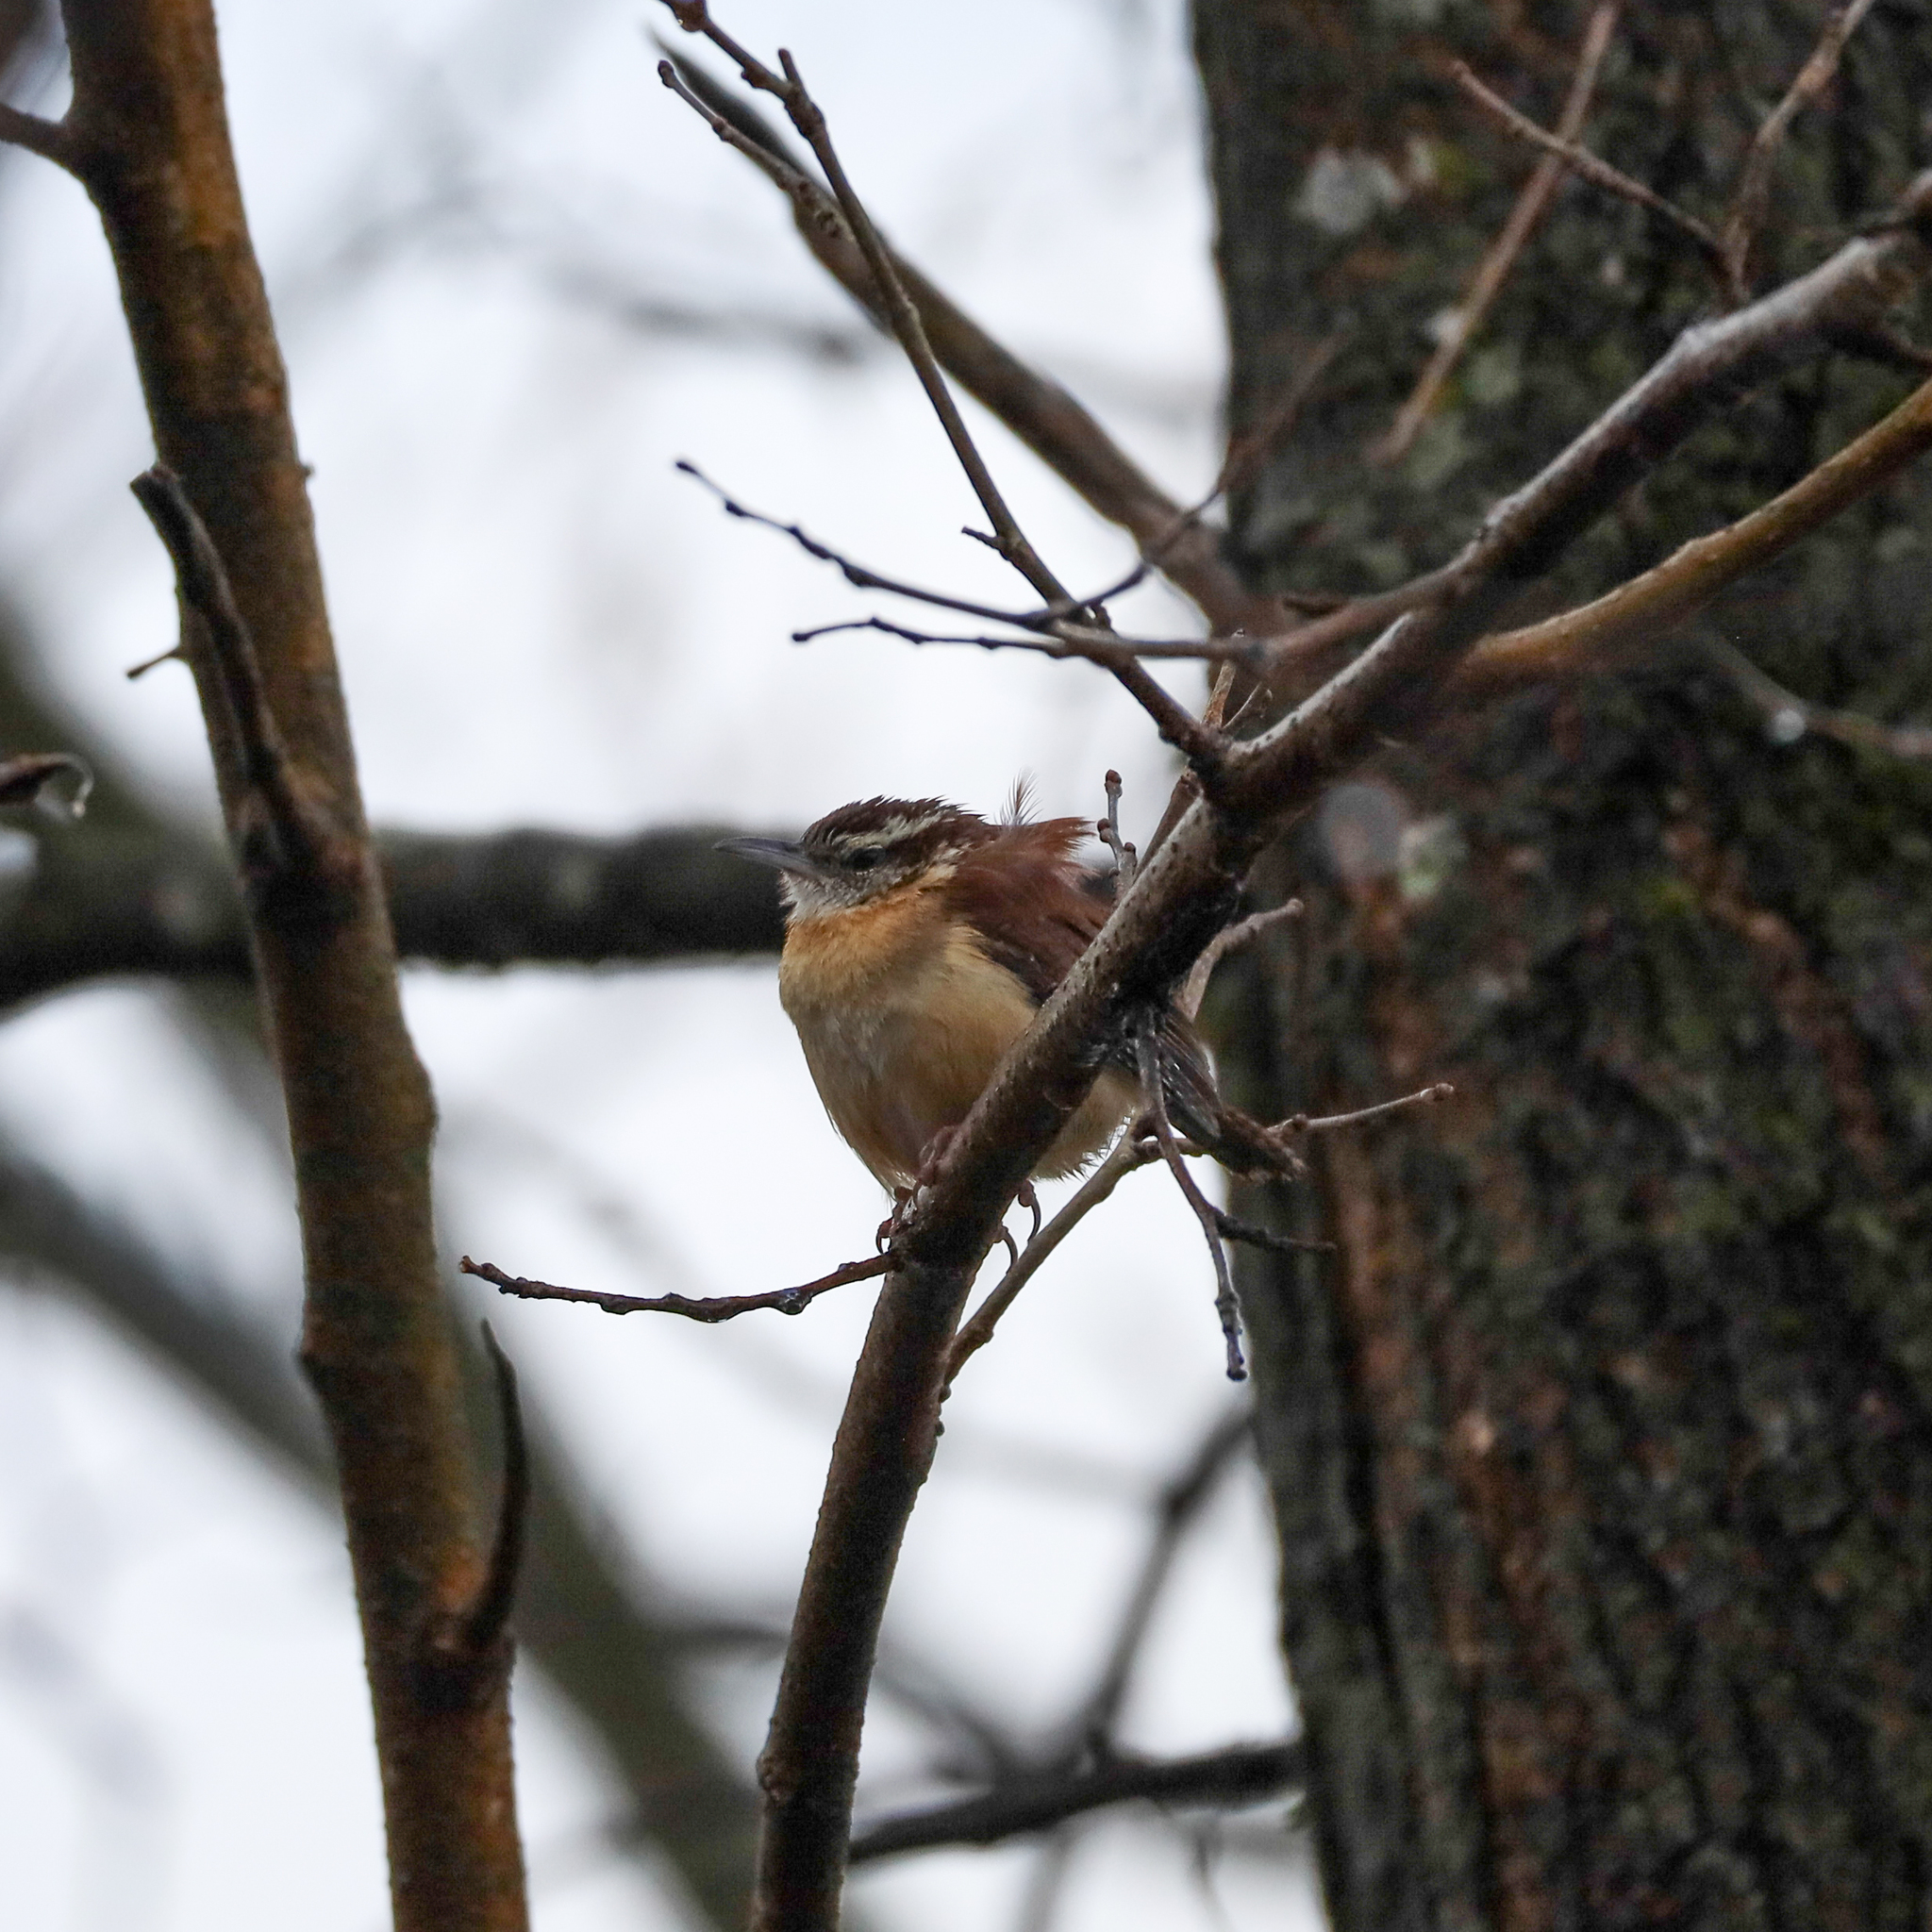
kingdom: Animalia
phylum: Chordata
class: Aves
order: Passeriformes
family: Troglodytidae
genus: Thryothorus
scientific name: Thryothorus ludovicianus
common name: Carolina wren
